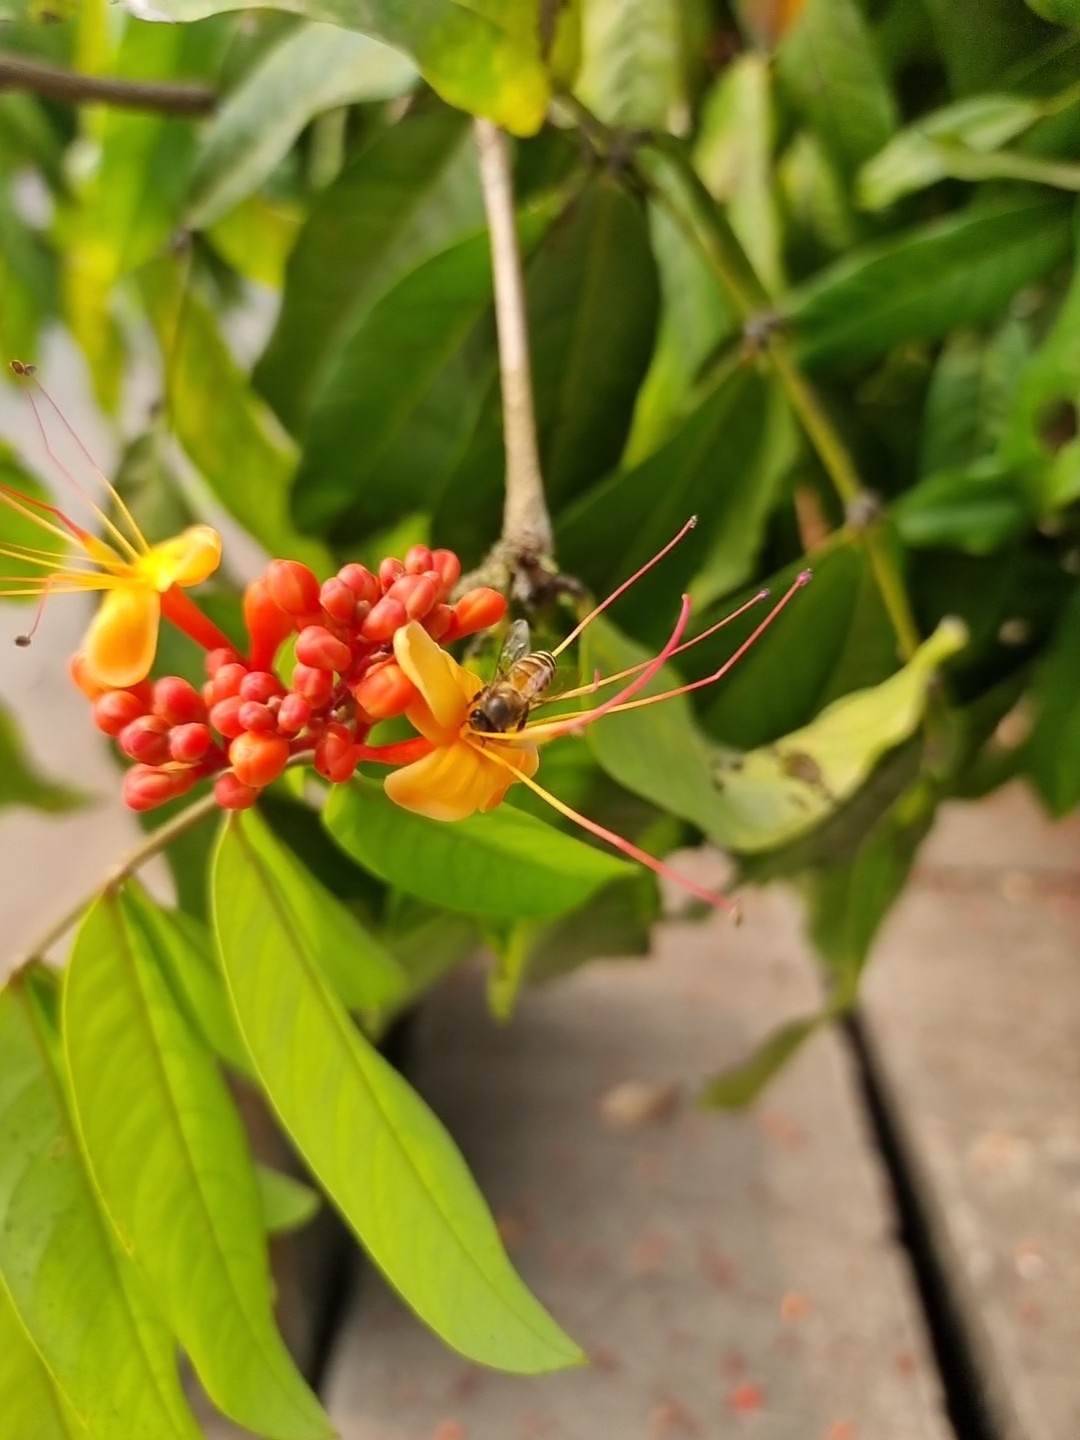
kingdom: Animalia
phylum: Arthropoda
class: Insecta
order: Hymenoptera
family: Apidae
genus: Apis
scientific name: Apis cerana
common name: Honey bee
